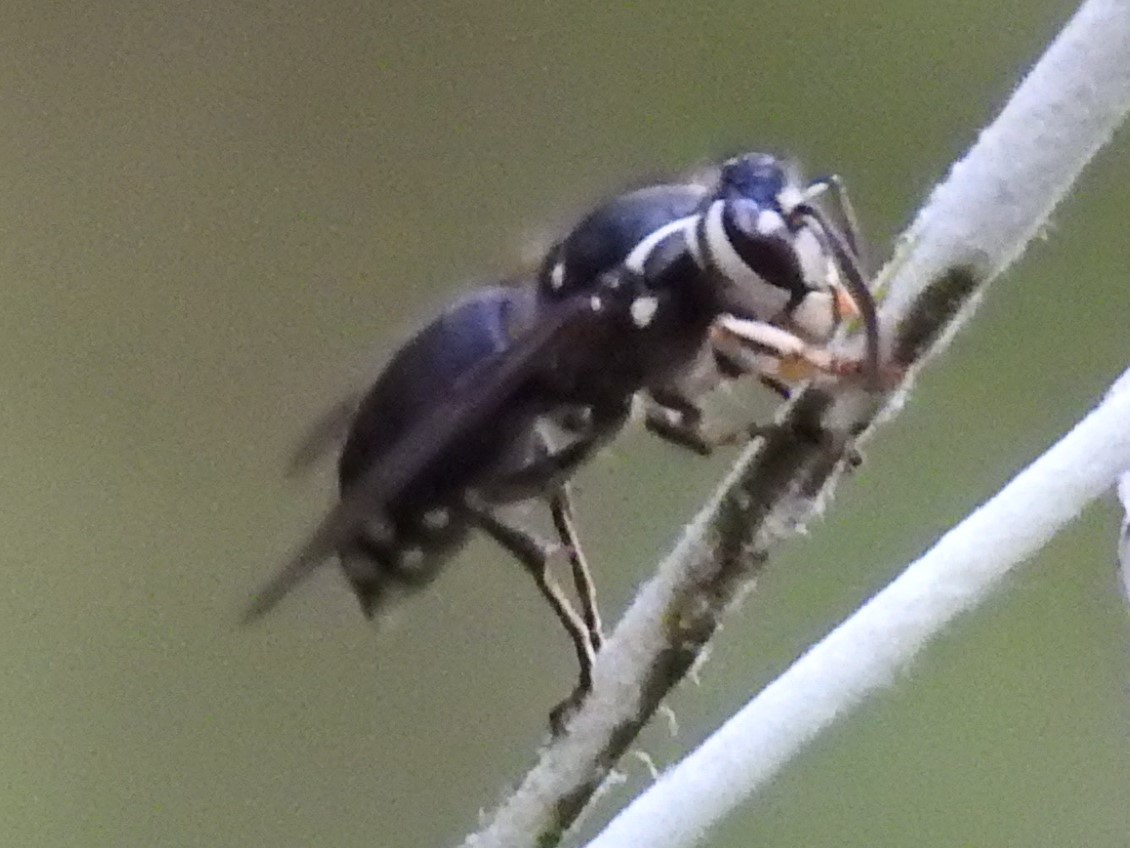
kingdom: Animalia
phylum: Arthropoda
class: Insecta
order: Hymenoptera
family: Vespidae
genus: Dolichovespula
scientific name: Dolichovespula maculata
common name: Bald-faced hornet
